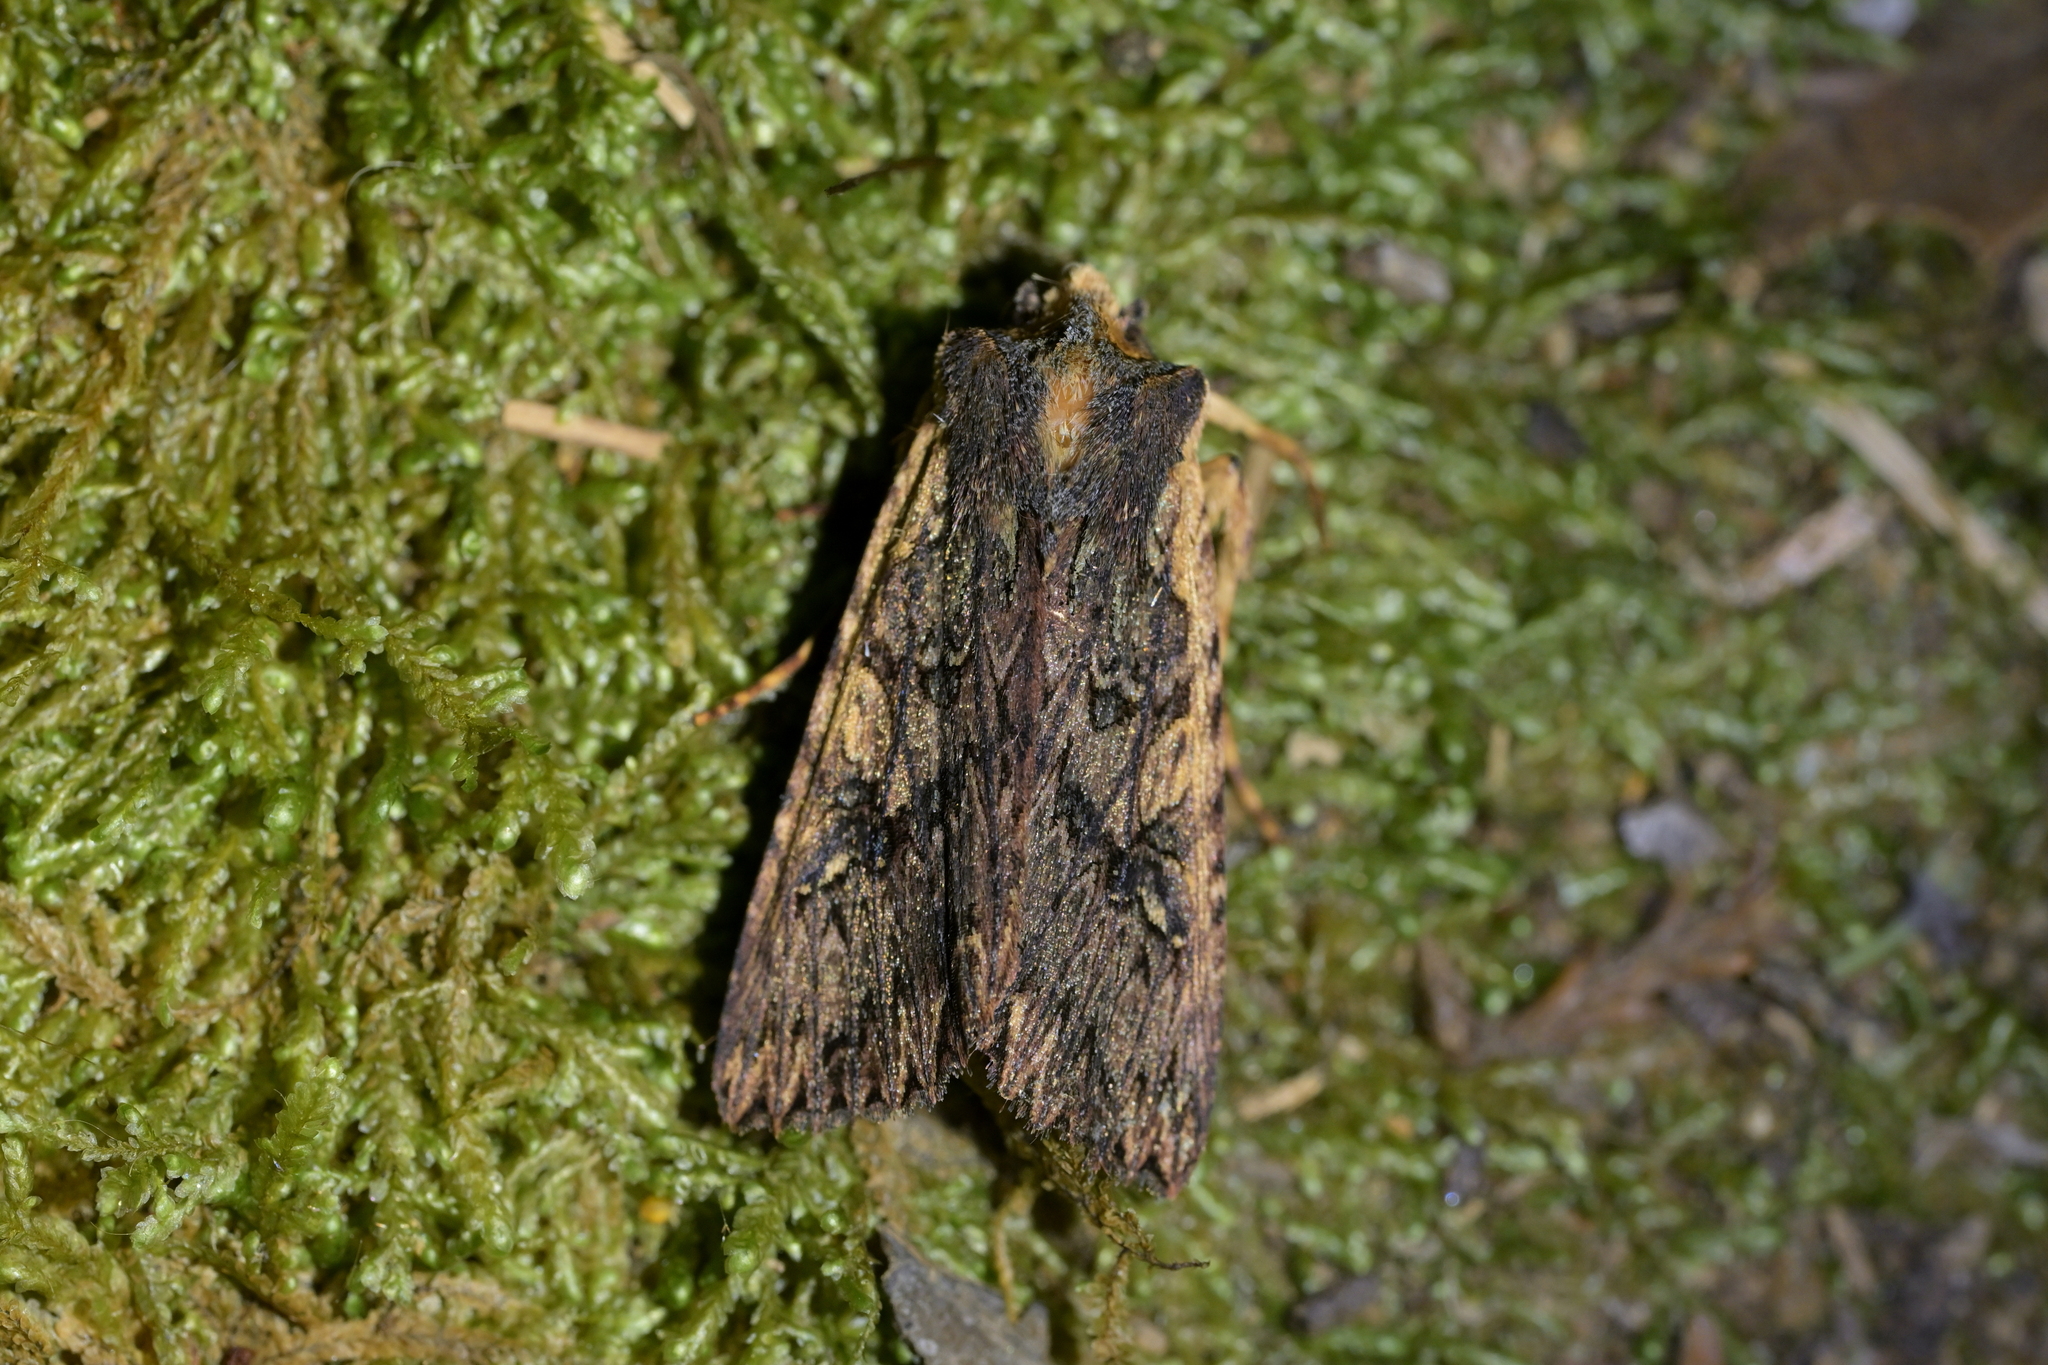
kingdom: Animalia
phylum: Arthropoda
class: Insecta
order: Lepidoptera
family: Noctuidae
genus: Meterana
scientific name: Meterana alcyone
